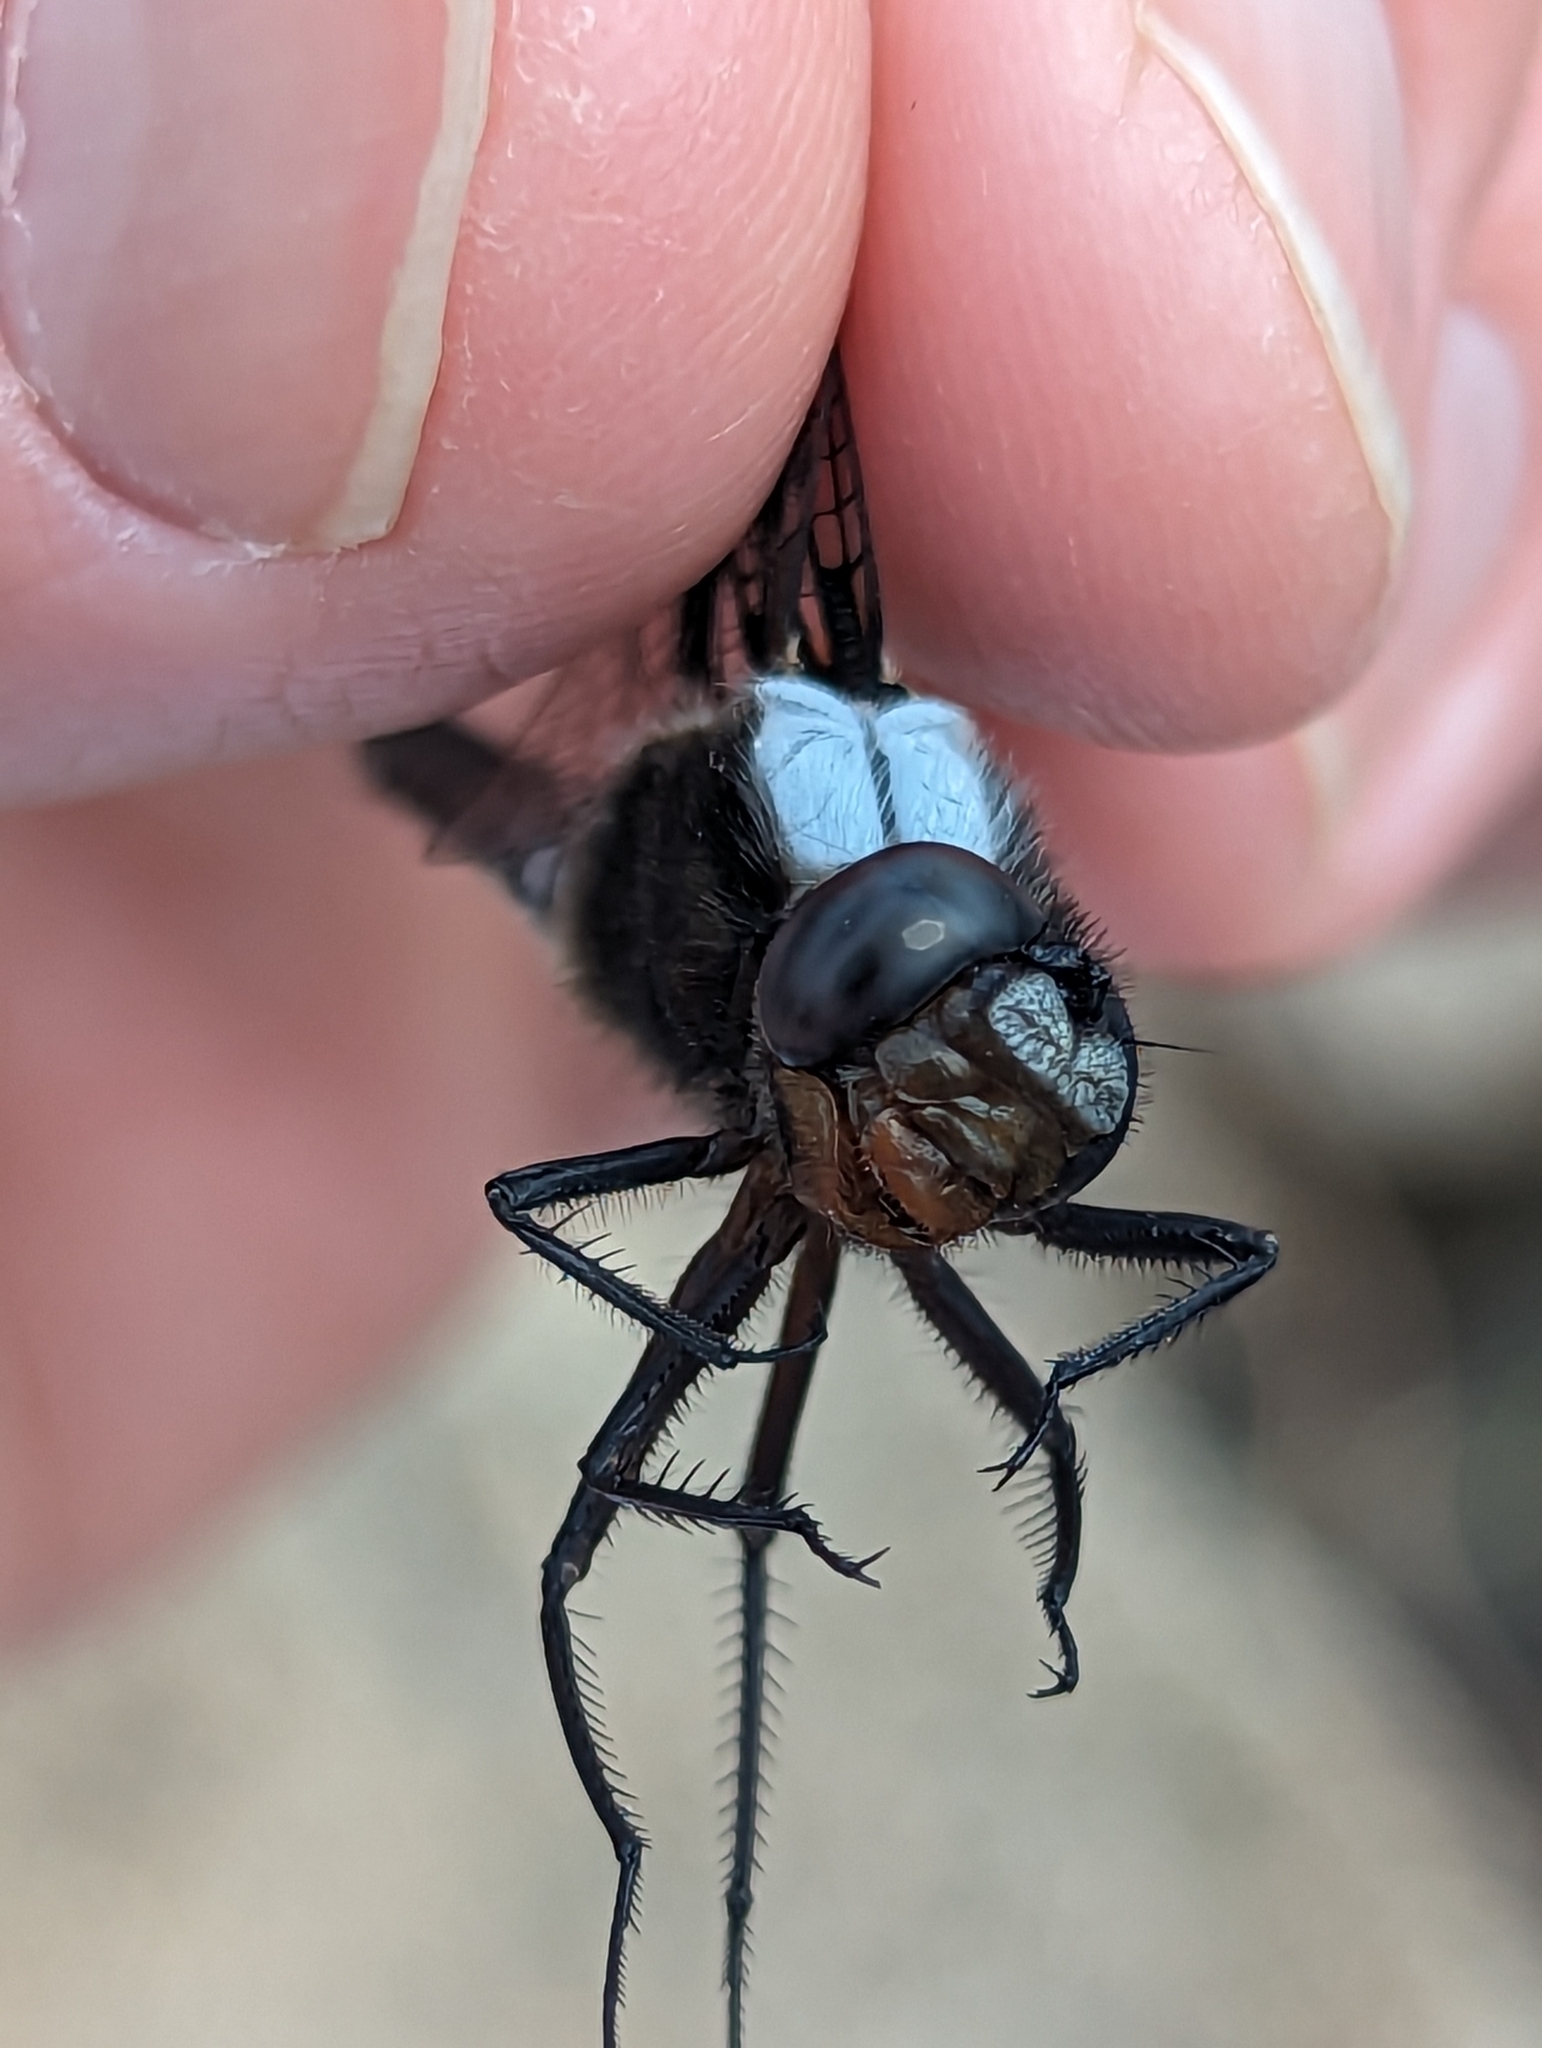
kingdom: Animalia
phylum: Arthropoda
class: Insecta
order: Odonata
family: Libellulidae
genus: Ladona
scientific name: Ladona julia
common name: Chalk-fronted corporal
